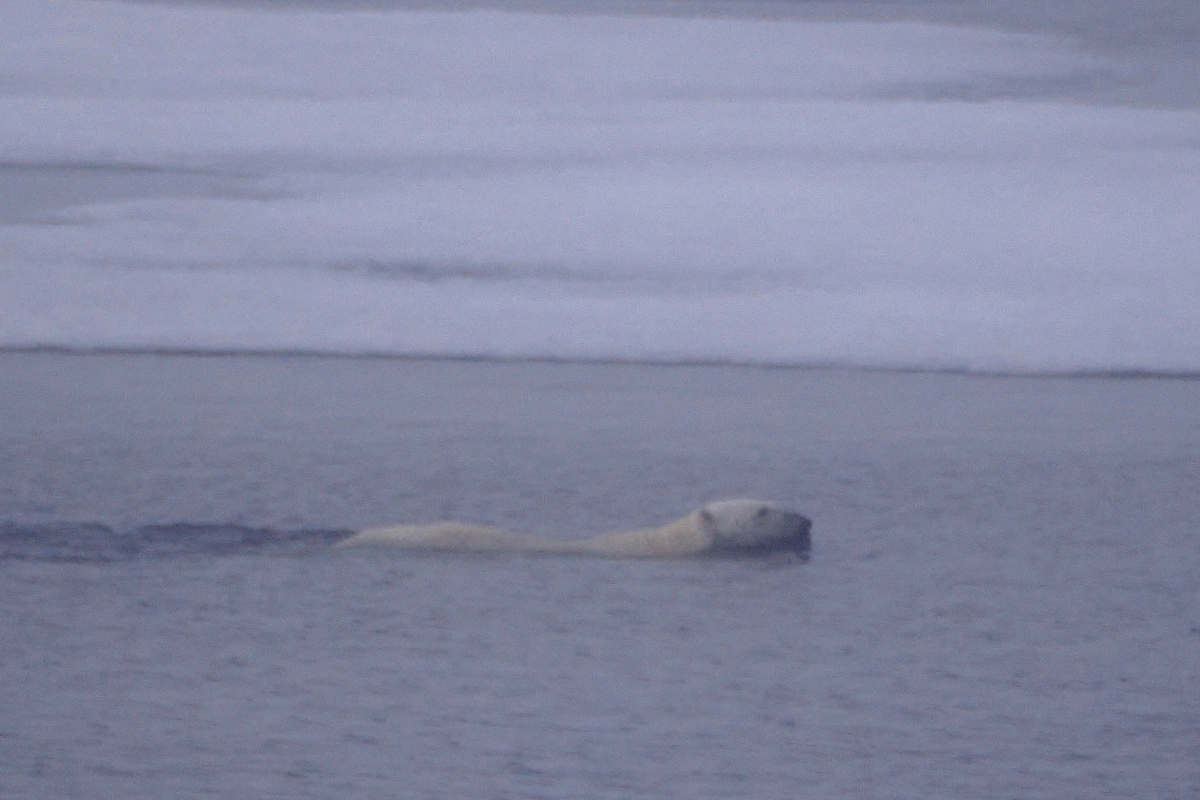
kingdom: Animalia
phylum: Chordata
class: Mammalia
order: Carnivora
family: Ursidae
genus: Ursus
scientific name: Ursus maritimus
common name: Polar bear
